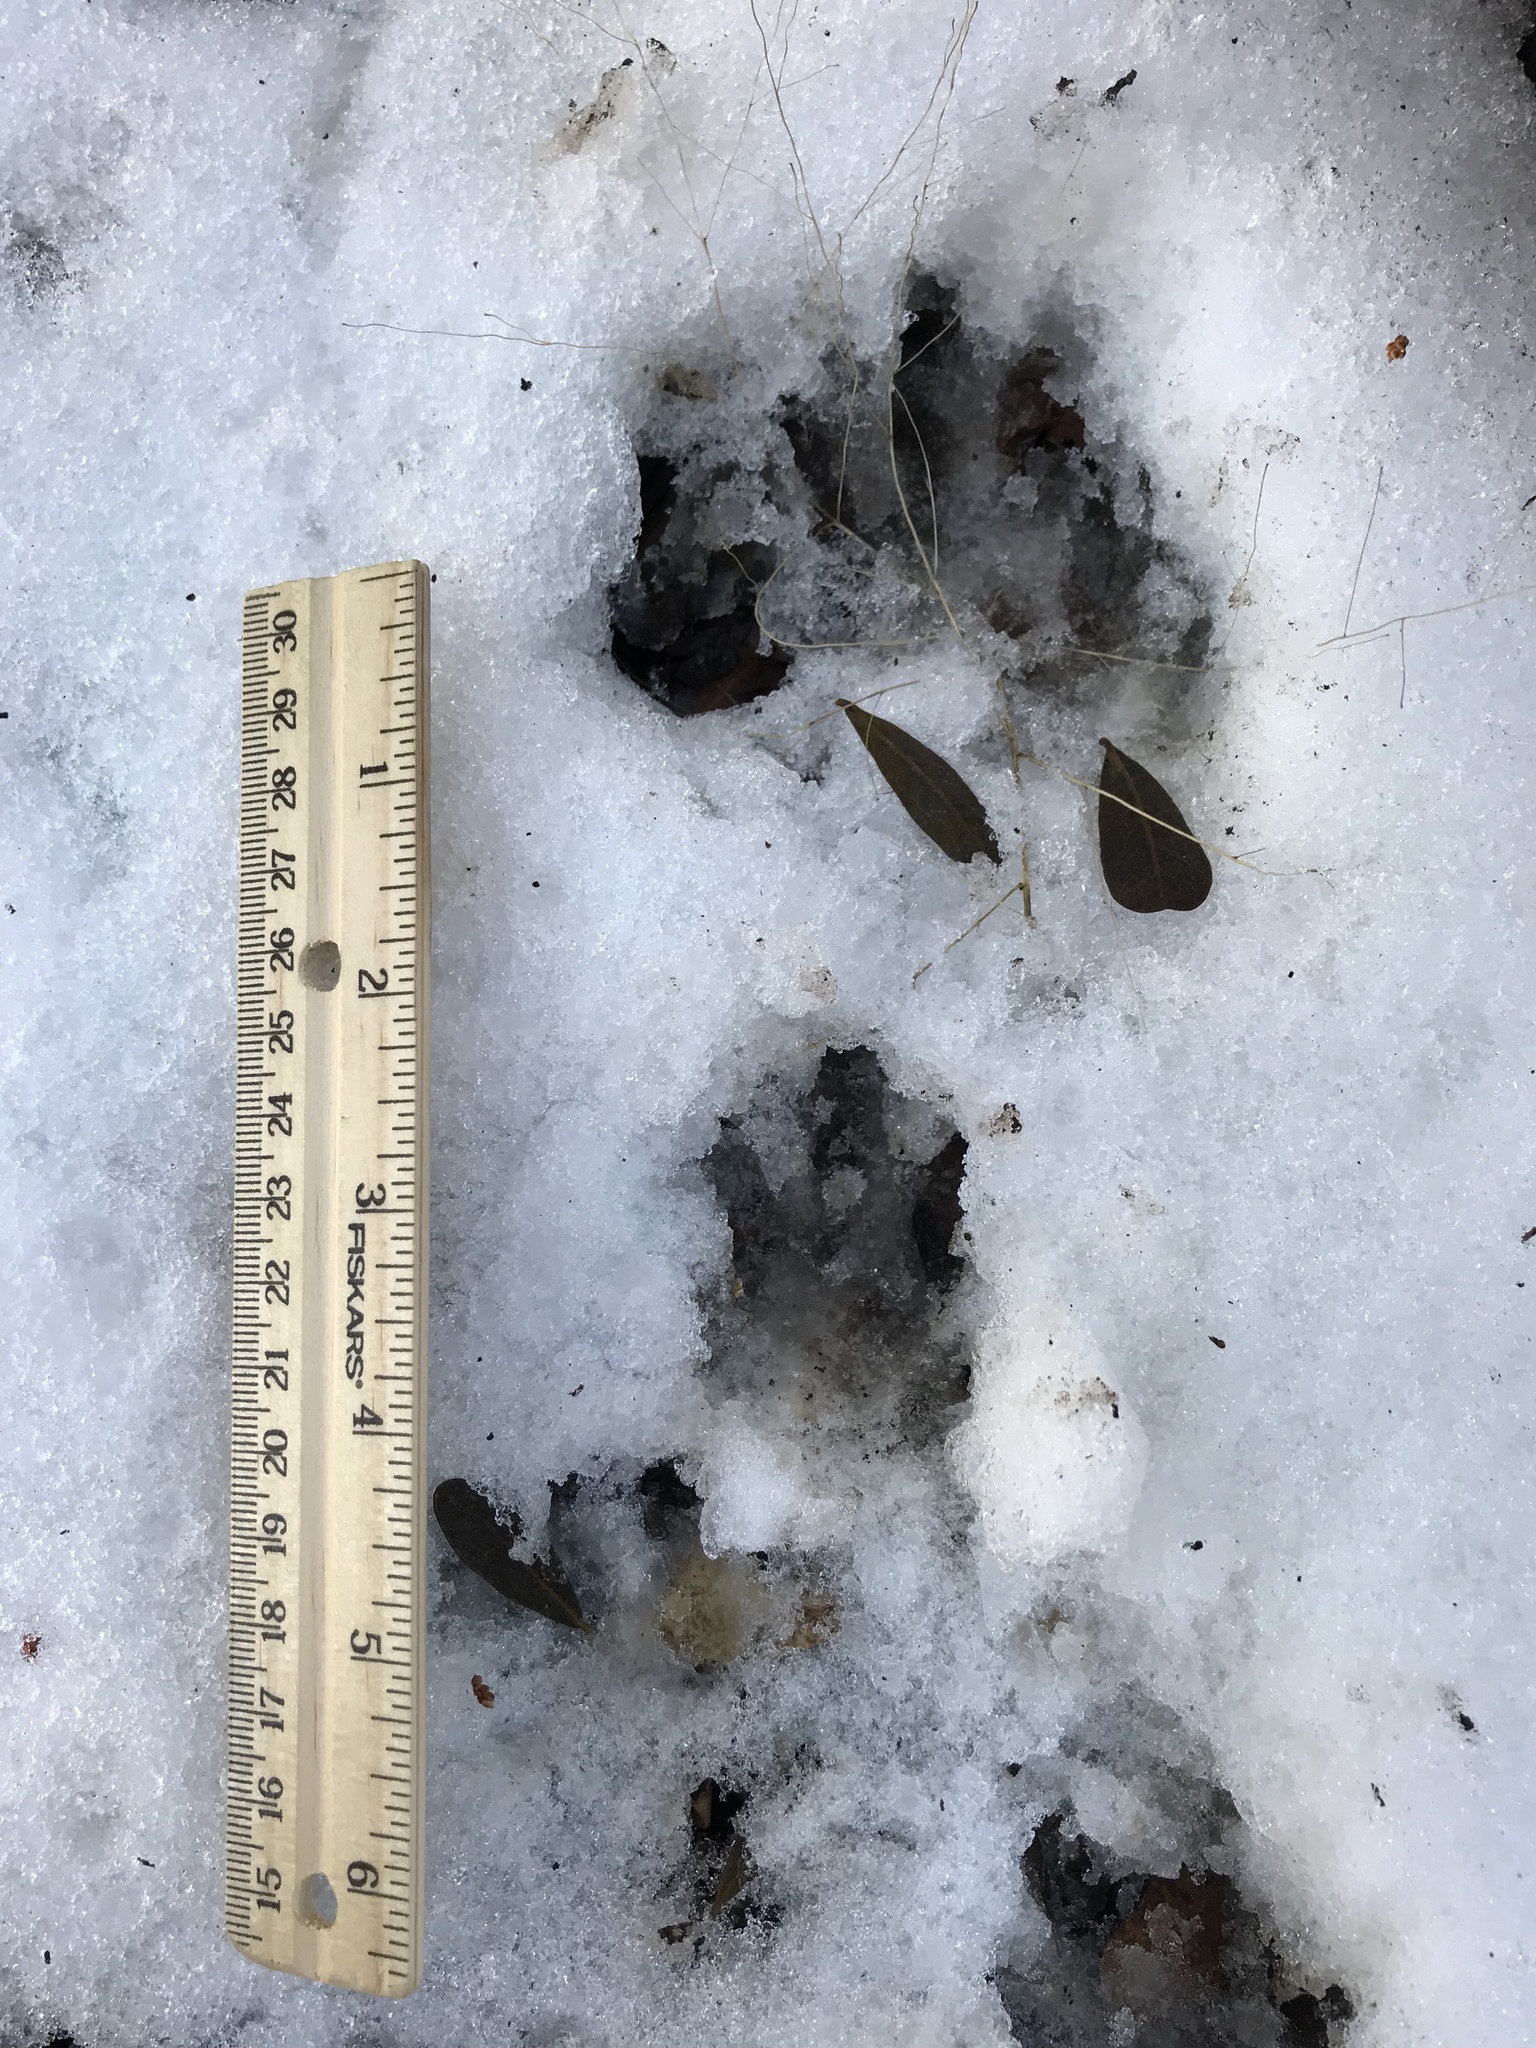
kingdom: Animalia
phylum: Chordata
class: Mammalia
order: Cingulata
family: Dasypodidae
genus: Dasypus
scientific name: Dasypus novemcinctus
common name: Nine-banded armadillo
